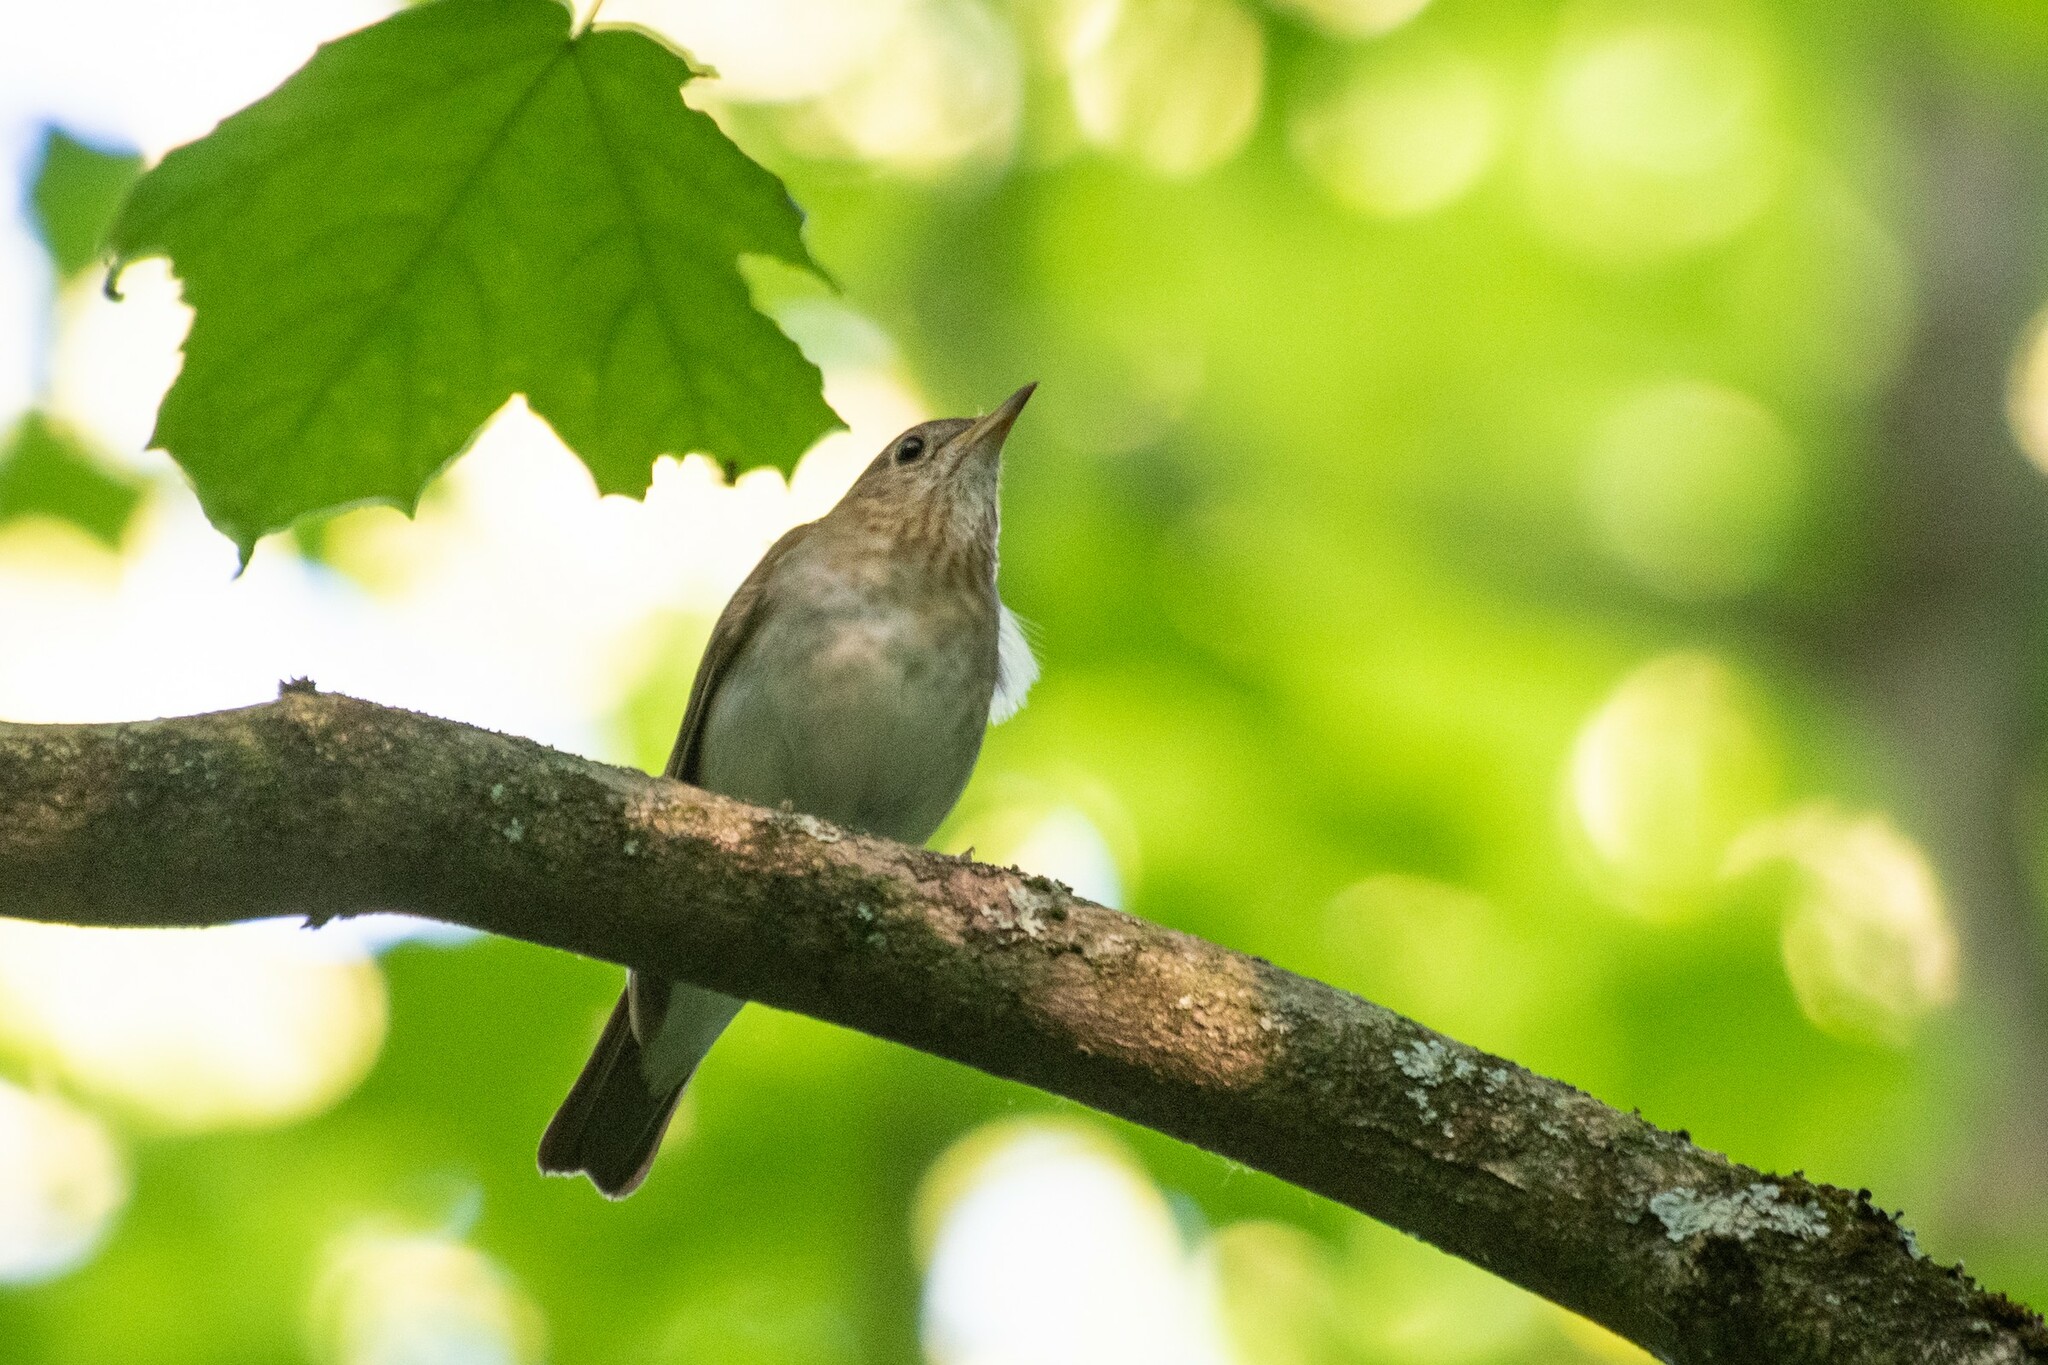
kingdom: Animalia
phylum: Chordata
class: Aves
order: Passeriformes
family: Turdidae
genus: Catharus
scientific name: Catharus fuscescens
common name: Veery
